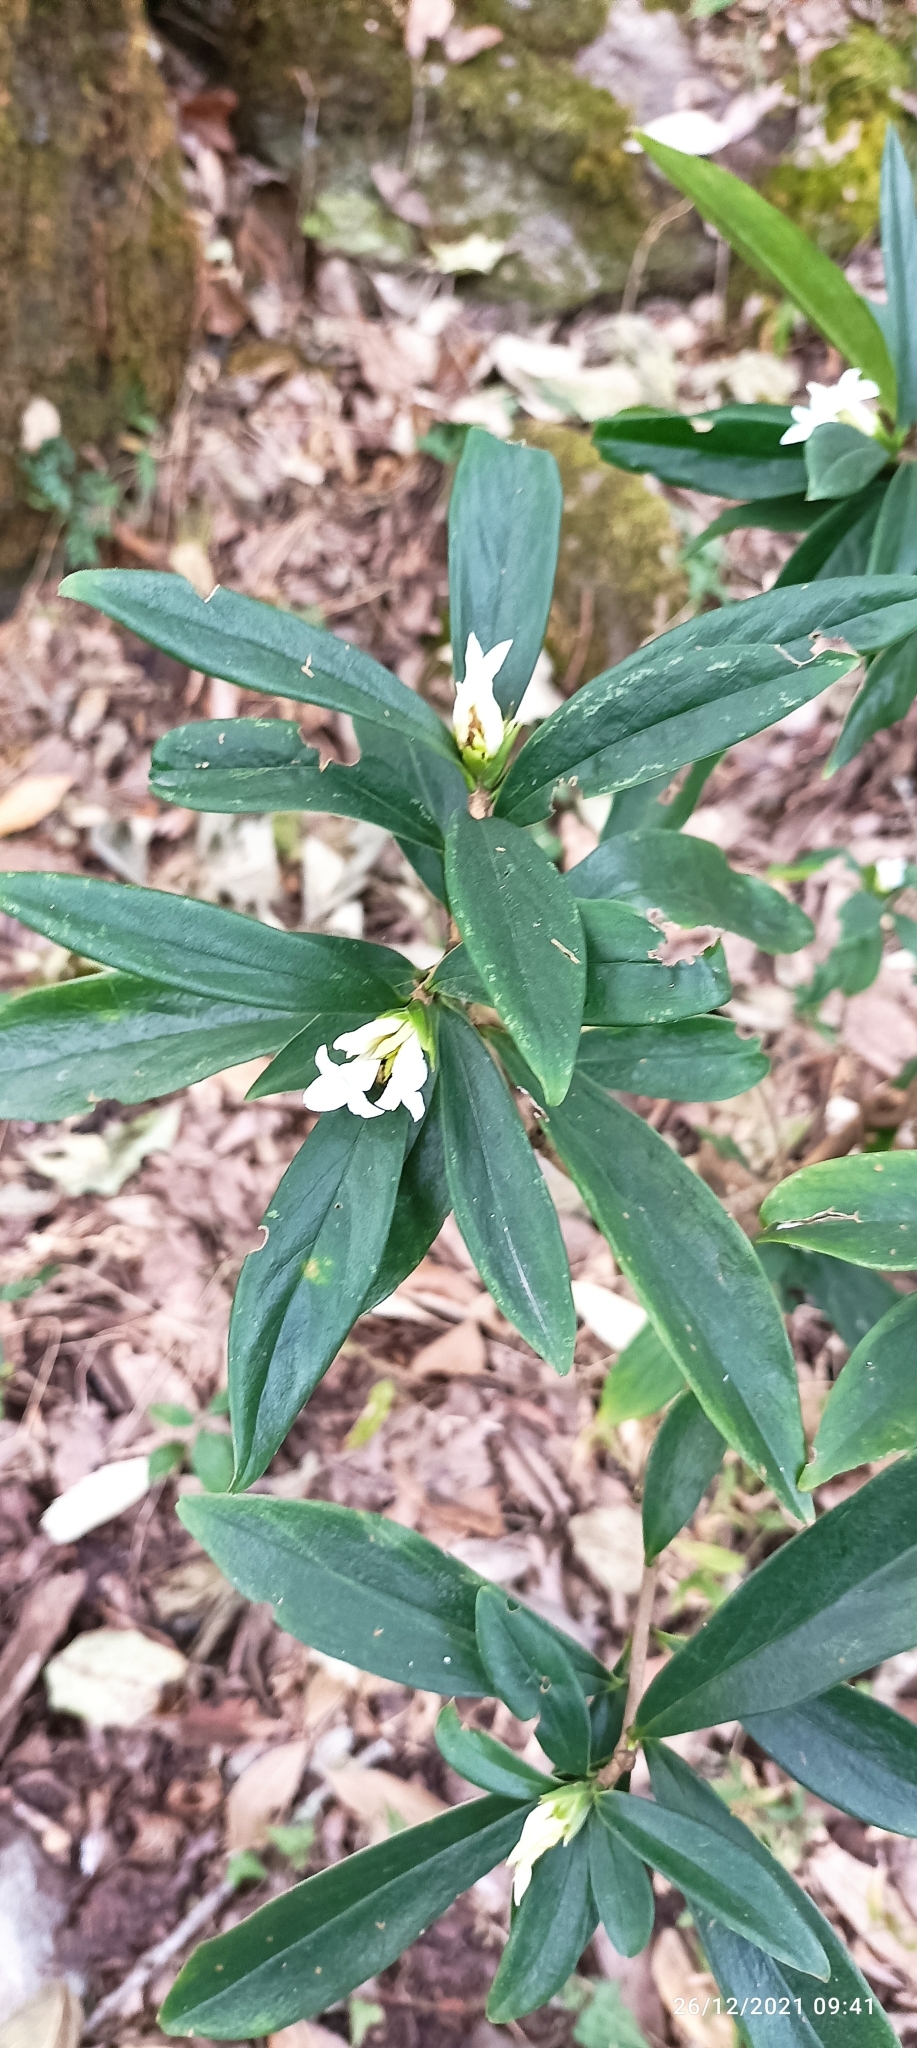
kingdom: Plantae
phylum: Tracheophyta
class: Magnoliopsida
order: Malvales
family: Thymelaeaceae
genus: Daphne
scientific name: Daphne papyracea
